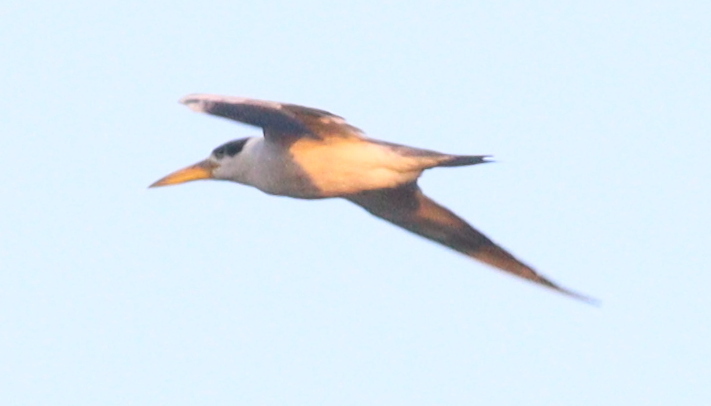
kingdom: Animalia
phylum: Chordata
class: Aves
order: Charadriiformes
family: Laridae
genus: Phaetusa
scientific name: Phaetusa simplex
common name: Large-billed tern
